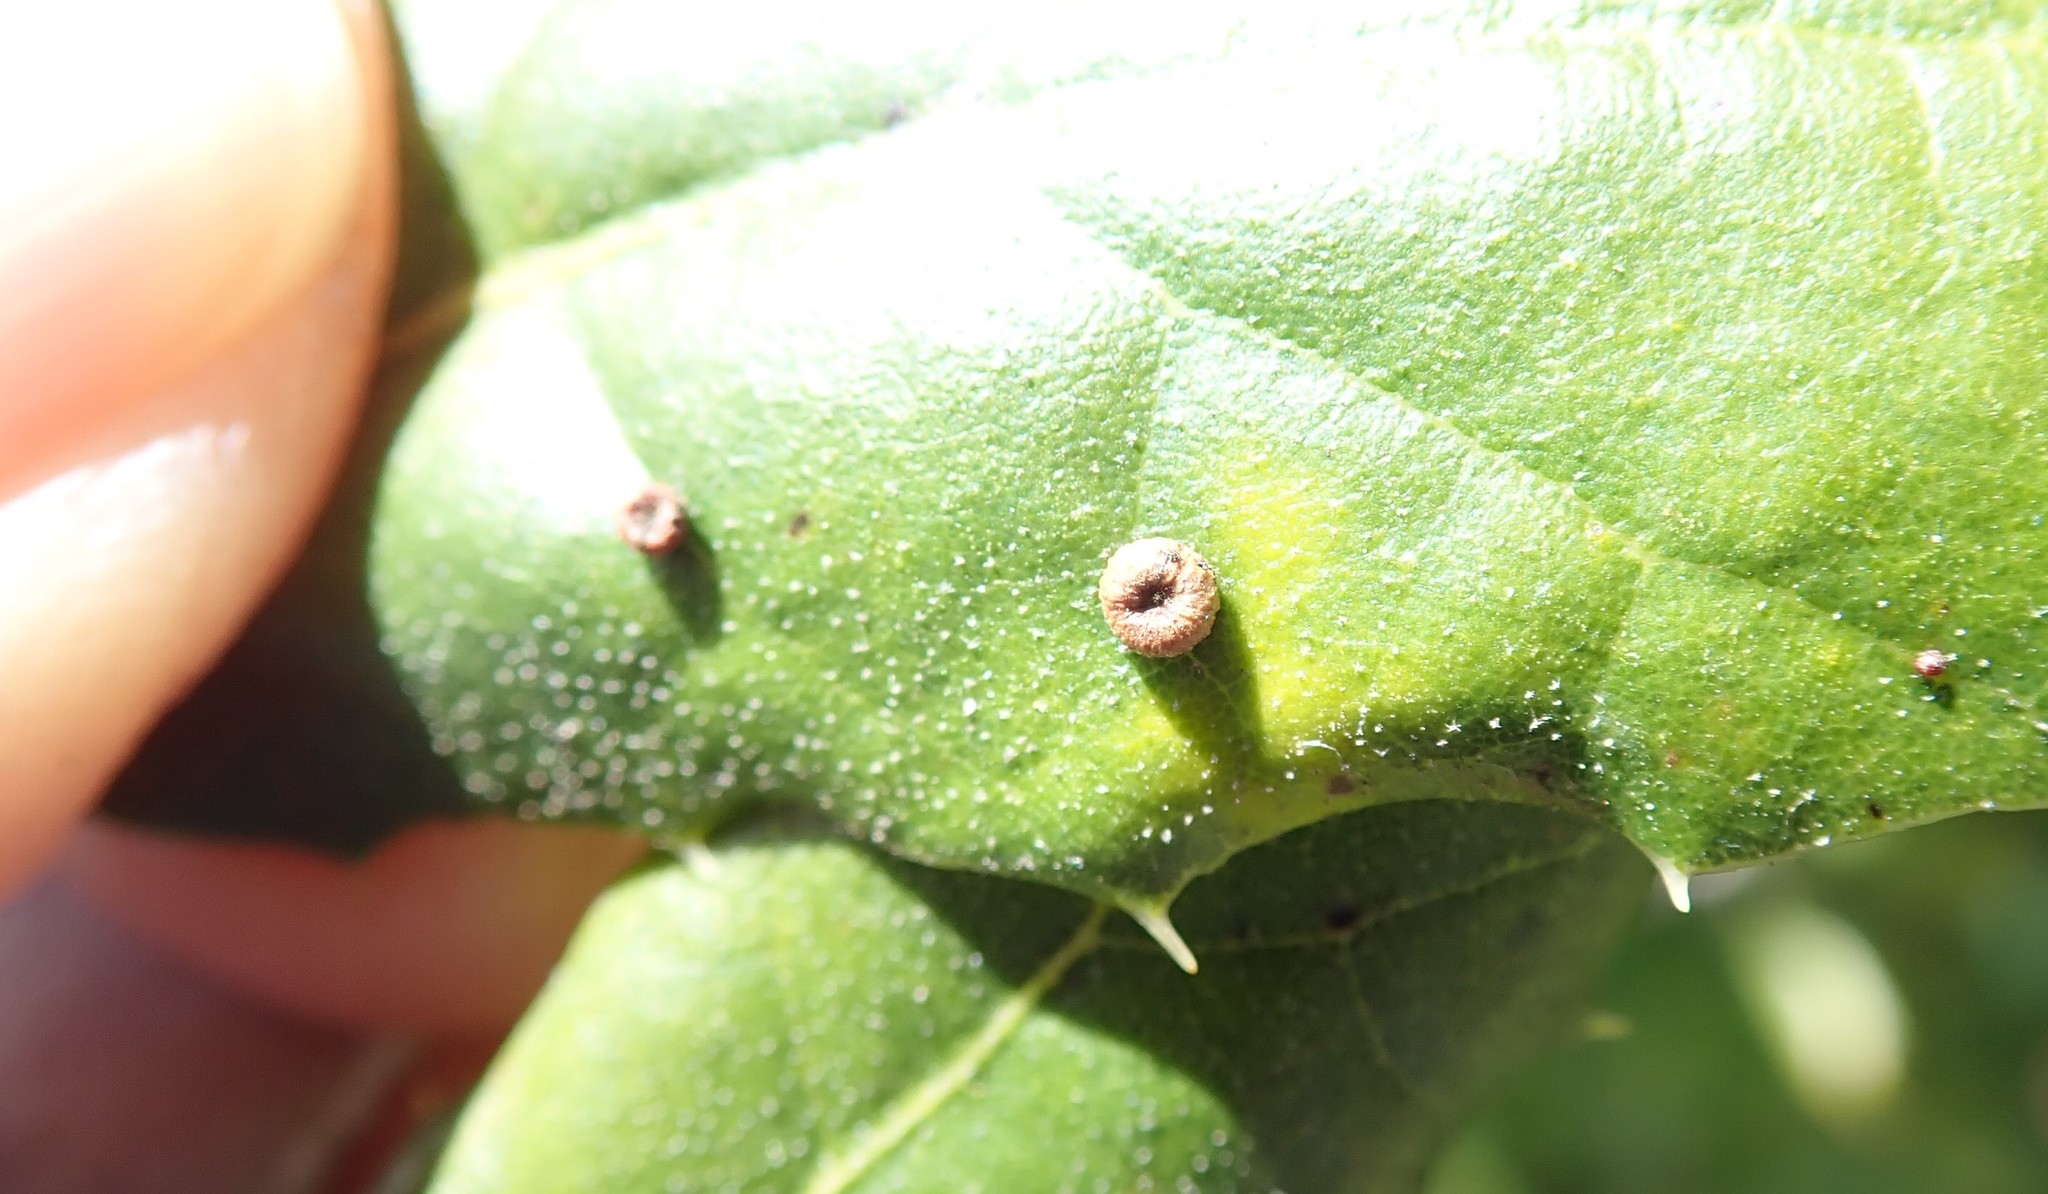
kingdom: Animalia
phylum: Arthropoda
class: Insecta
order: Hymenoptera
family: Cynipidae
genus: Dryocosmus
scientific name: Dryocosmus
